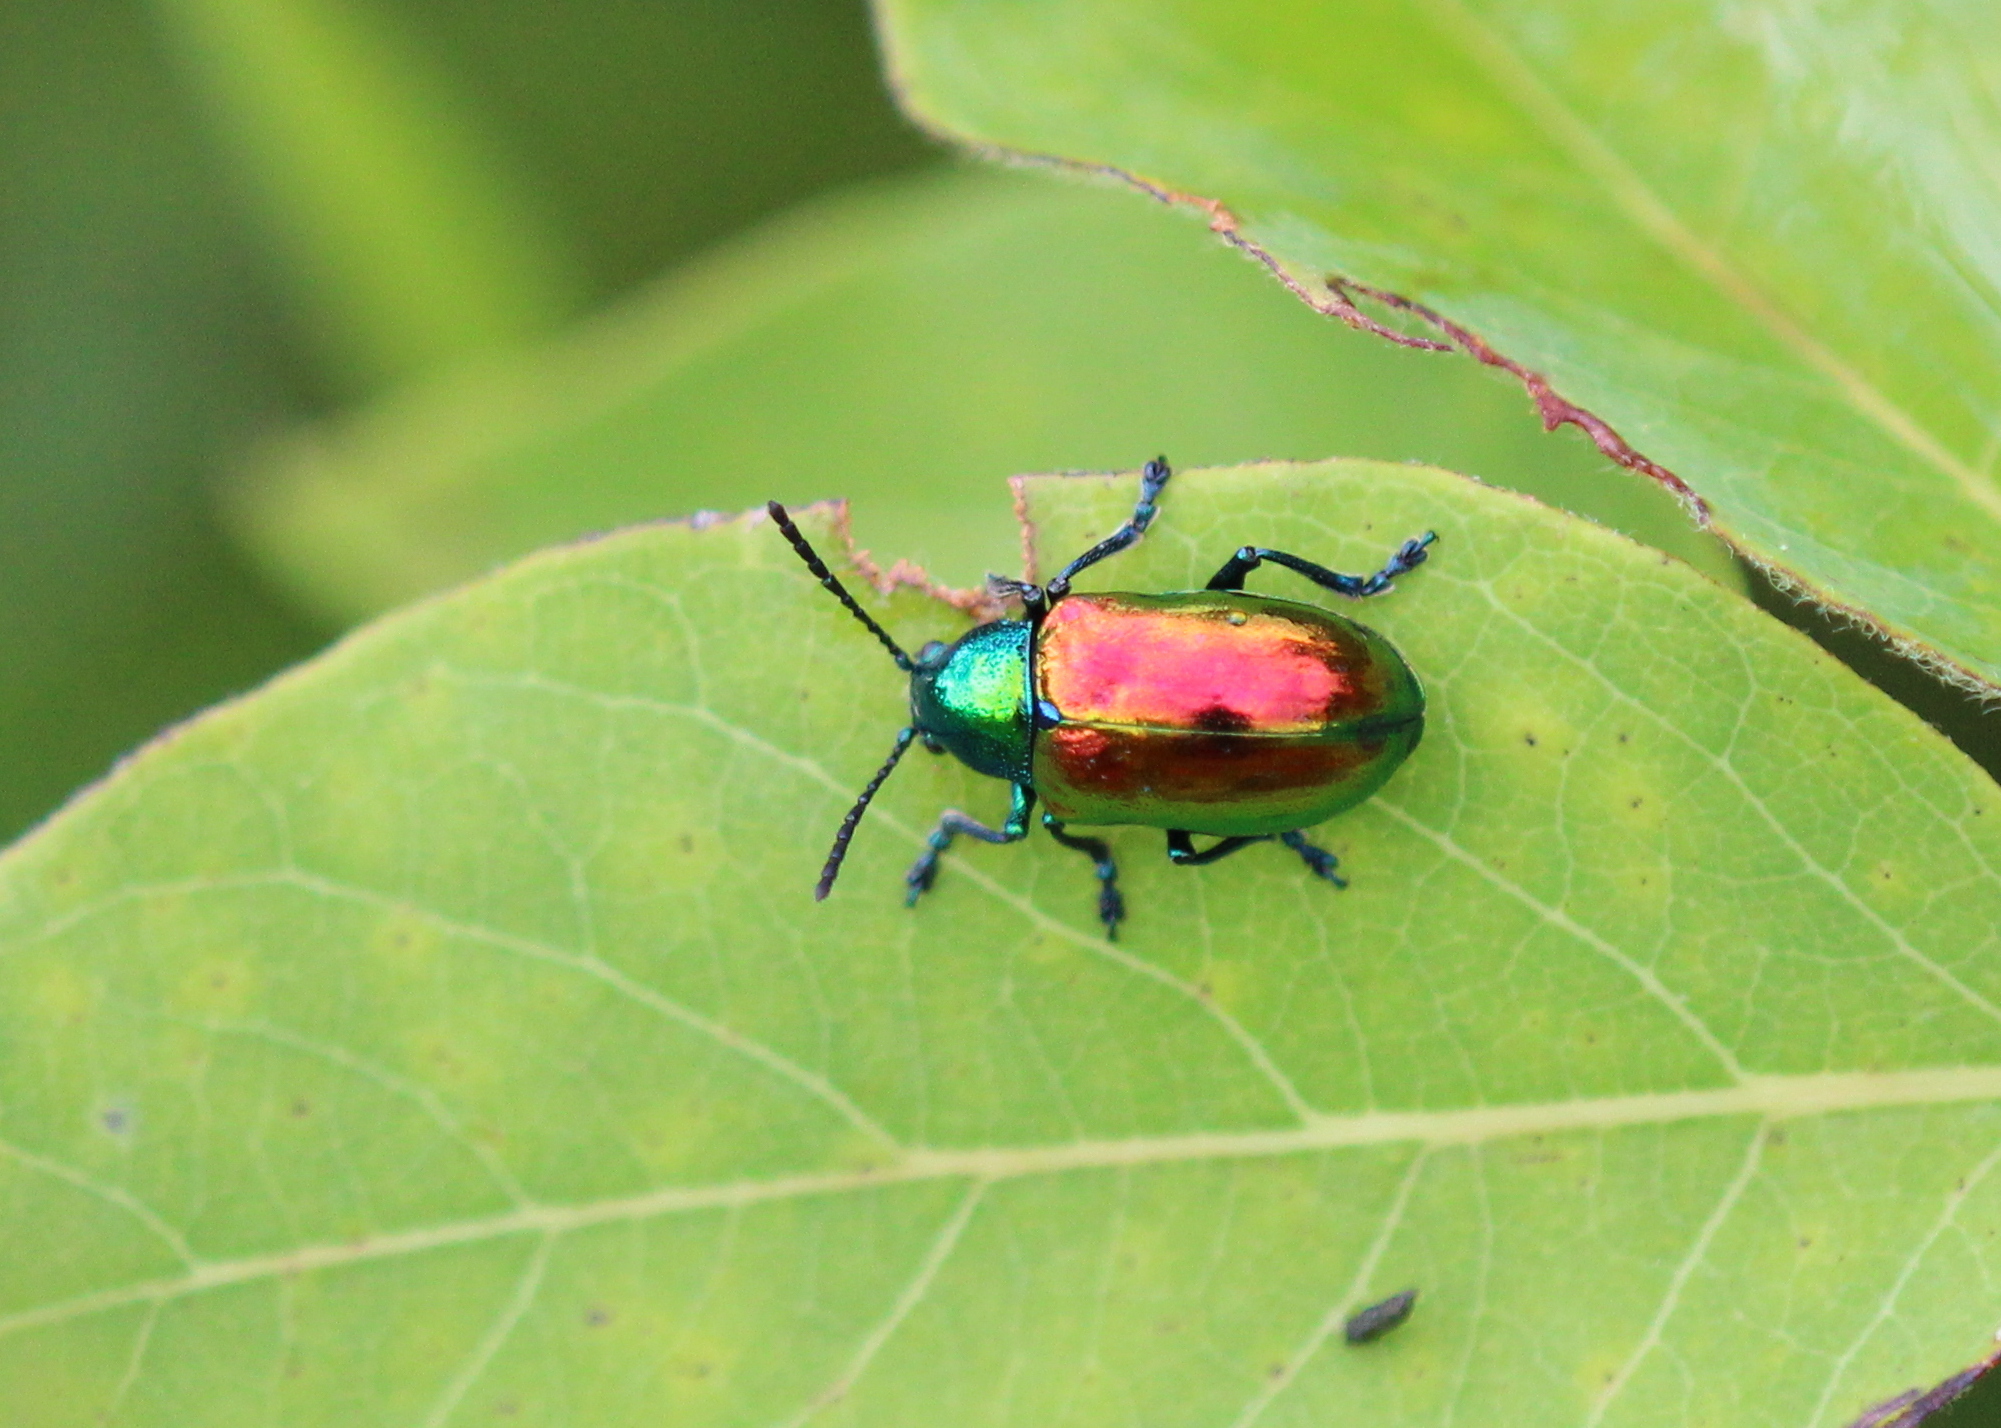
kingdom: Animalia
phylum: Arthropoda
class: Insecta
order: Coleoptera
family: Chrysomelidae
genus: Chrysochus
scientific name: Chrysochus auratus
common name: Dogbane leaf beetle
